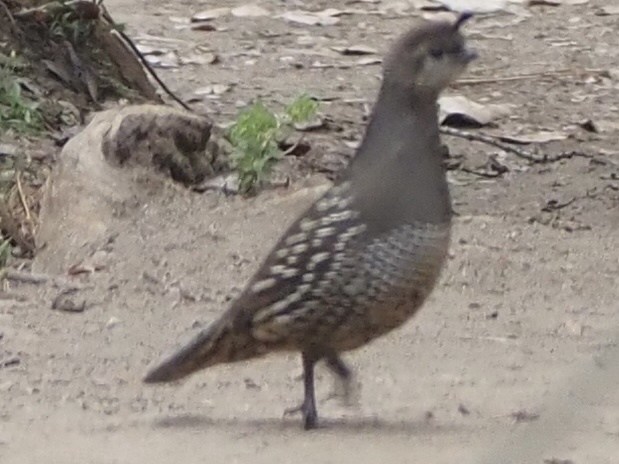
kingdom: Animalia
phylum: Chordata
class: Aves
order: Galliformes
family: Odontophoridae
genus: Callipepla
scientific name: Callipepla californica
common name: California quail
